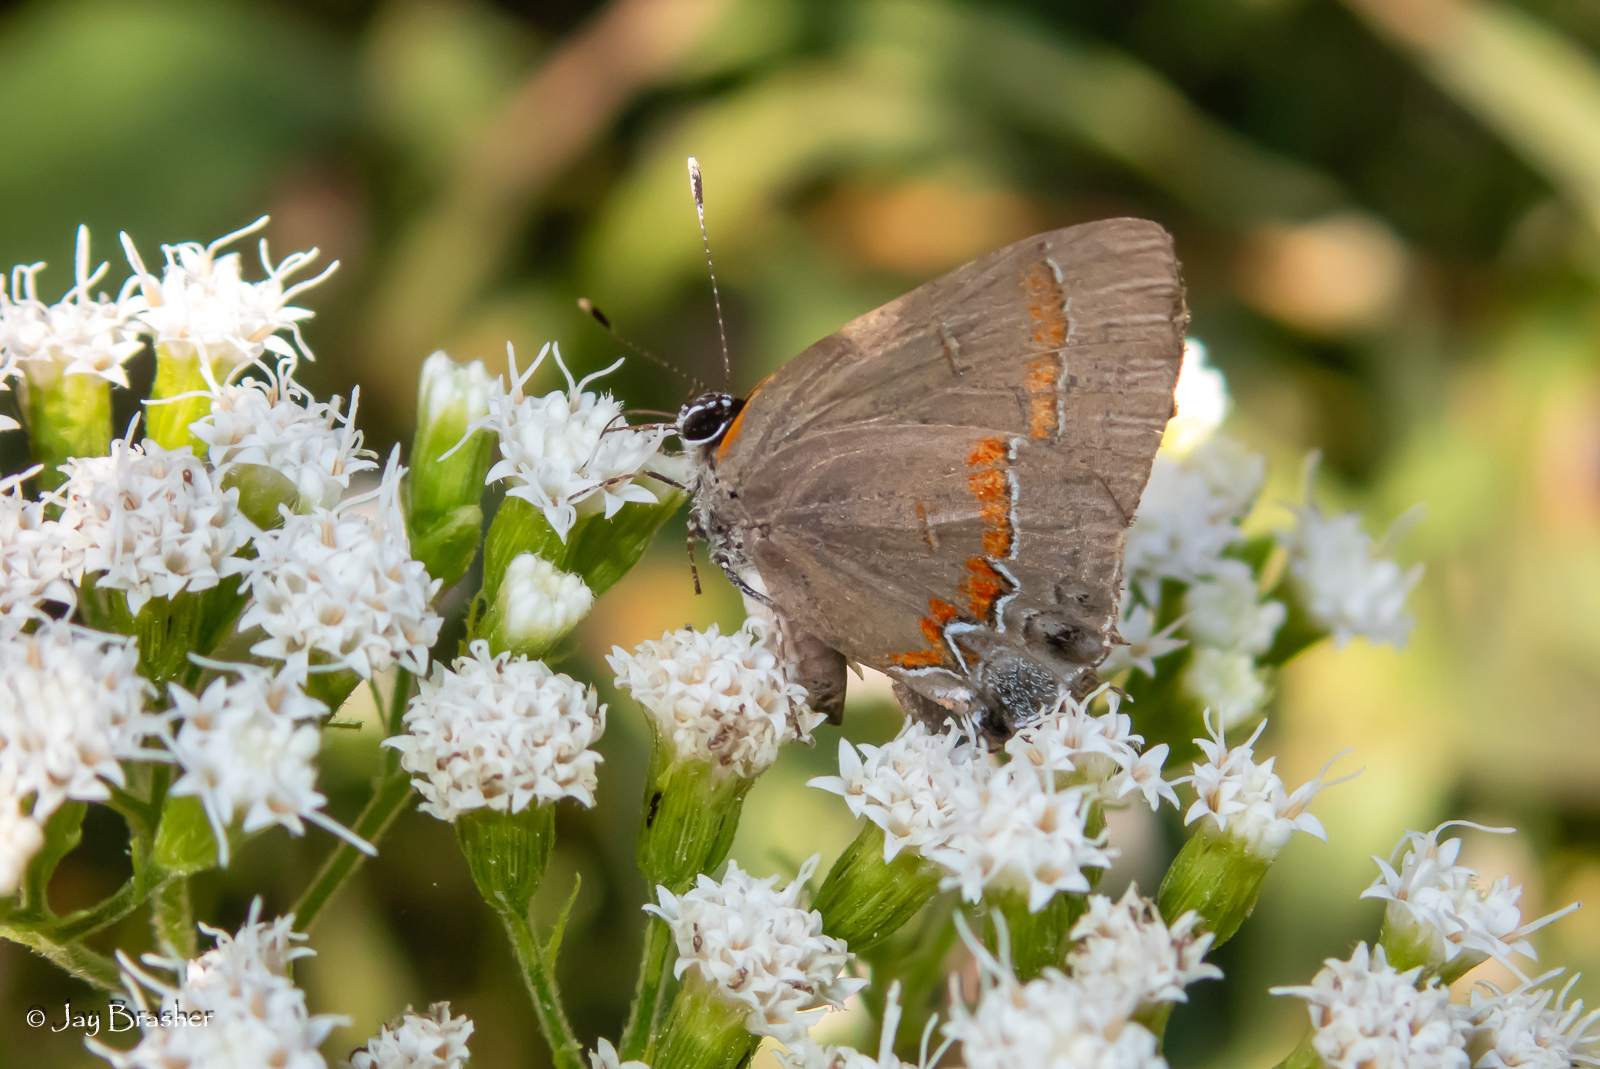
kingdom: Animalia
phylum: Arthropoda
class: Insecta
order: Lepidoptera
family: Lycaenidae
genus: Calycopis
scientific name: Calycopis cecrops
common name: Red-banded hairstreak
